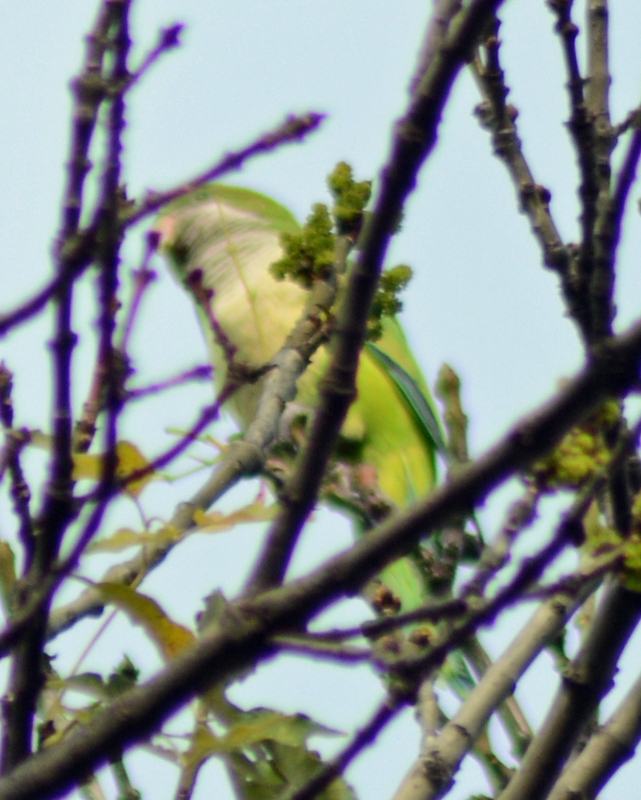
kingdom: Animalia
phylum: Chordata
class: Aves
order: Psittaciformes
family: Psittacidae
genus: Myiopsitta
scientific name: Myiopsitta monachus
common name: Monk parakeet
